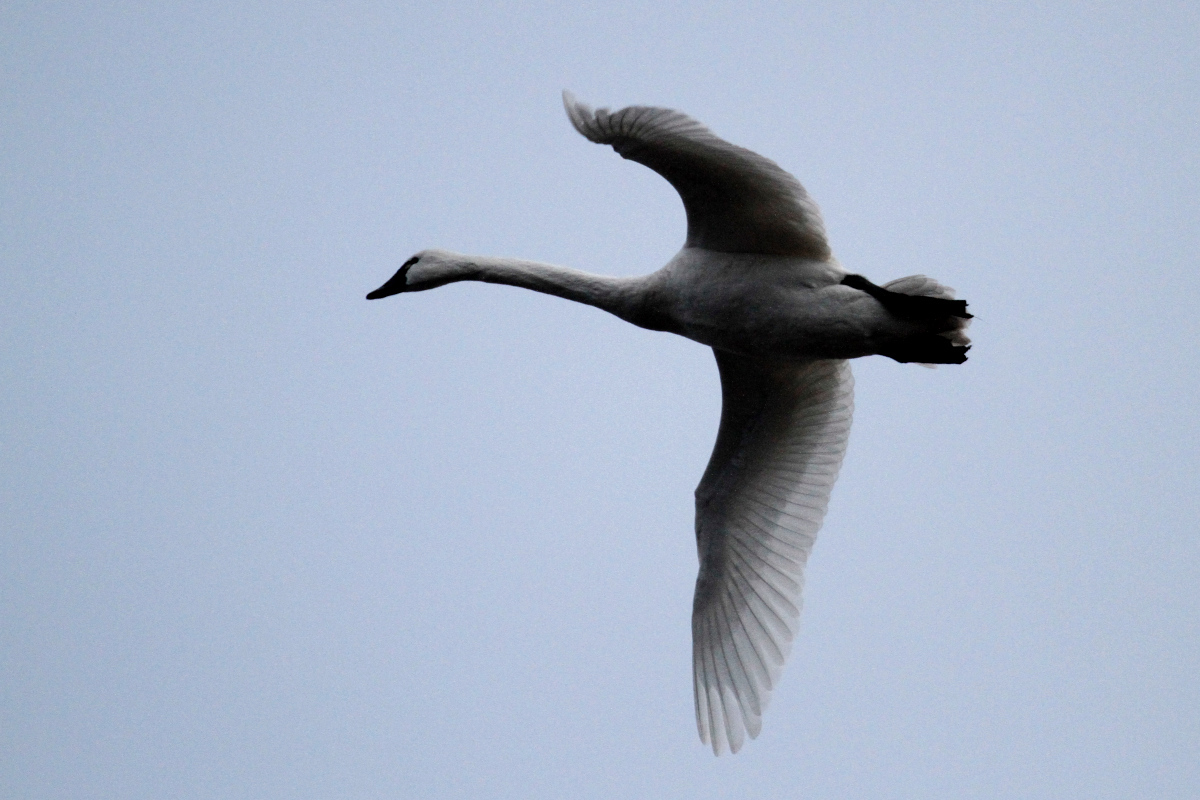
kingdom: Animalia
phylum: Chordata
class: Aves
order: Anseriformes
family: Anatidae
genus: Cygnus
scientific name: Cygnus columbianus
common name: Tundra swan
